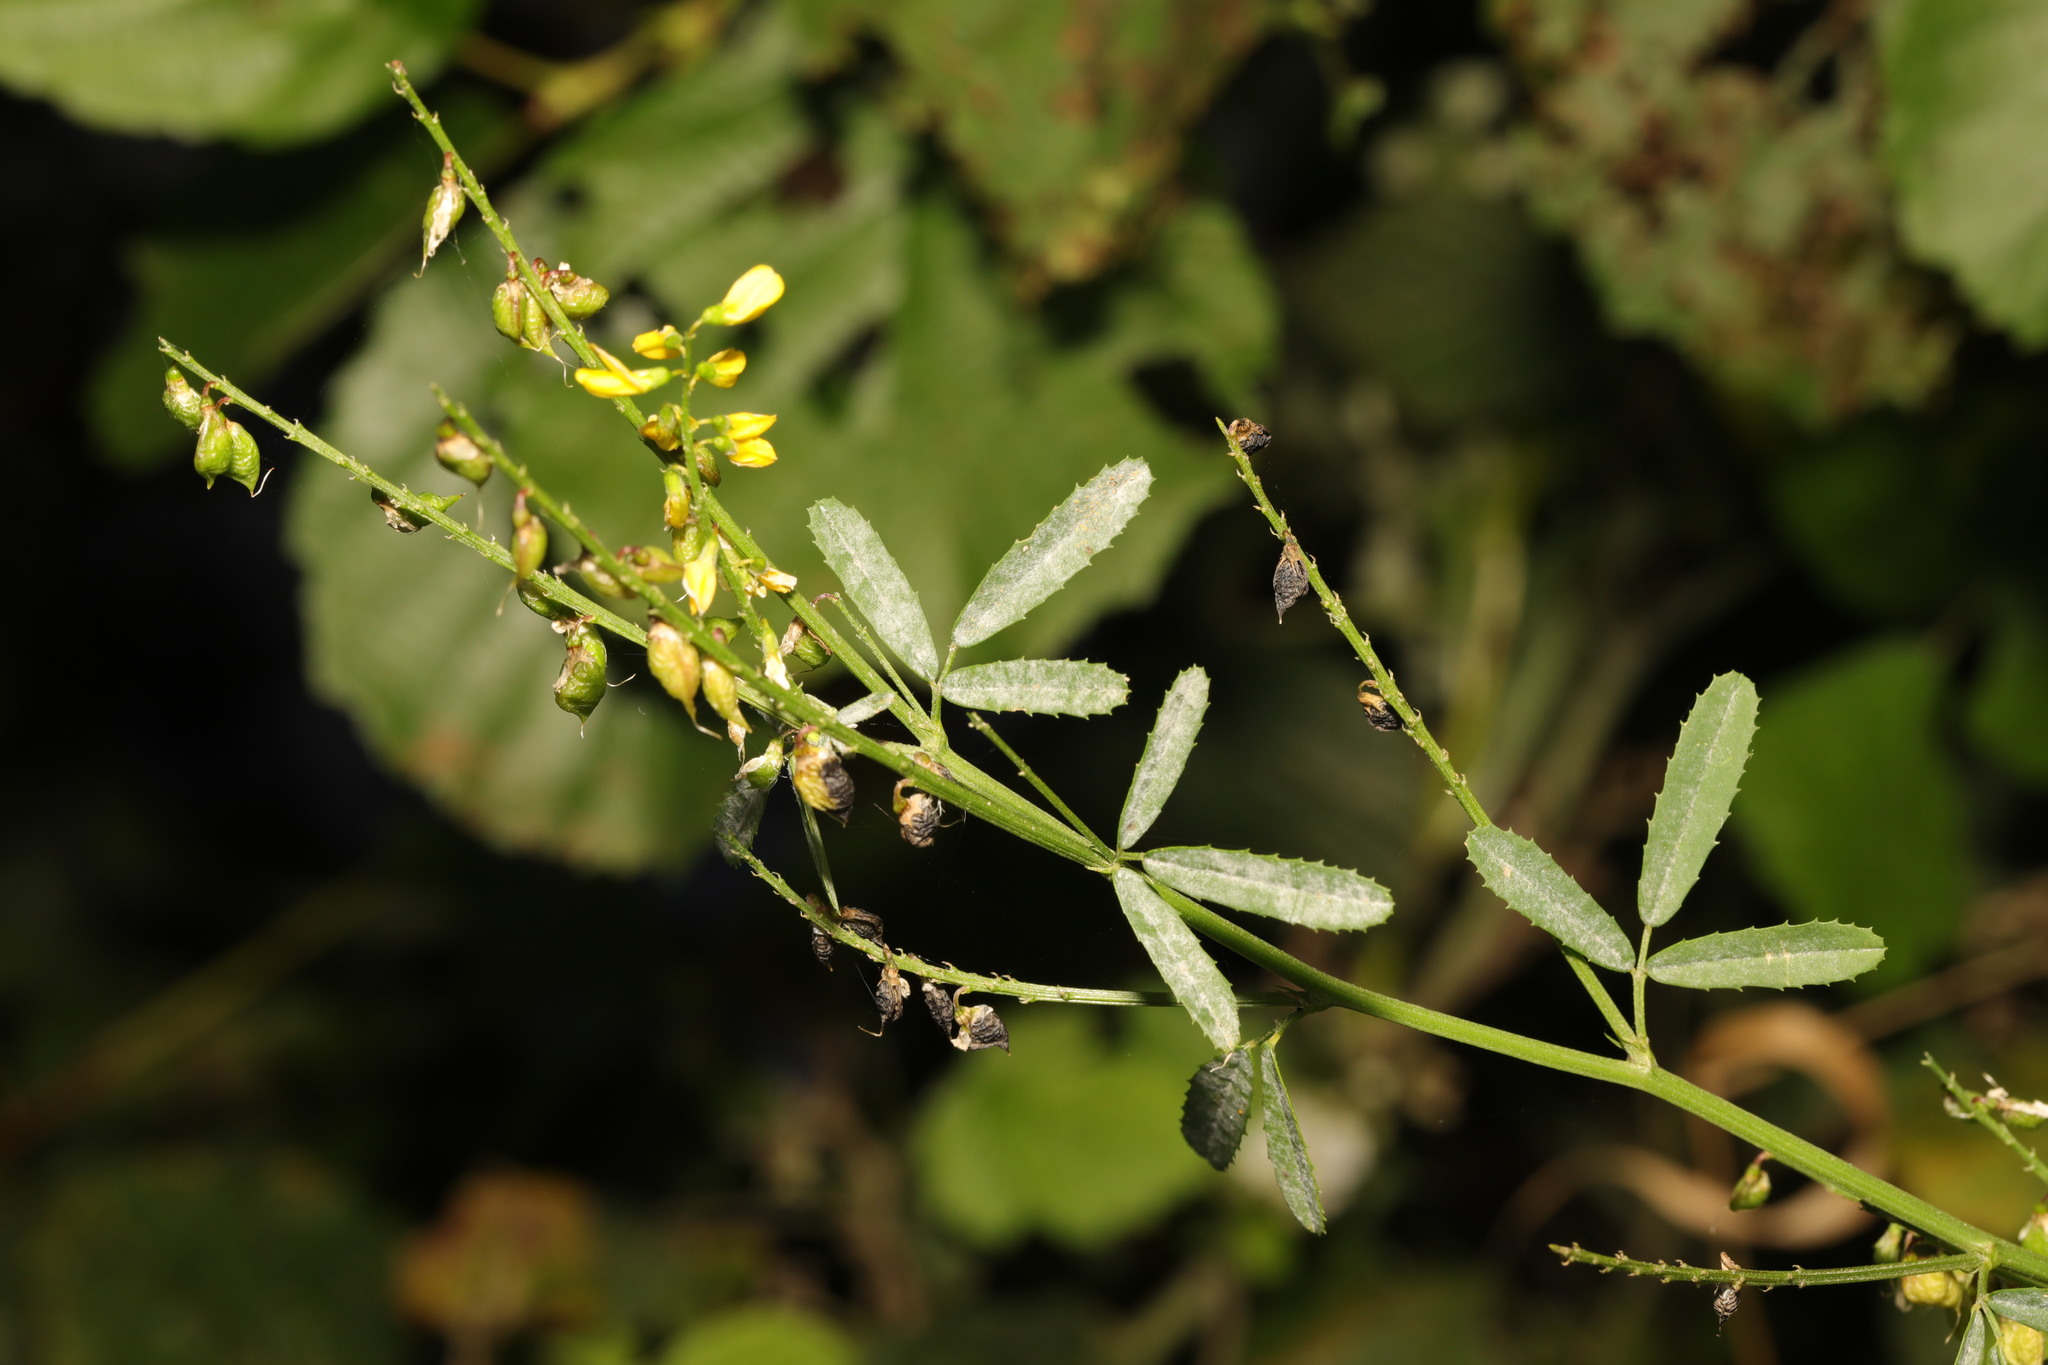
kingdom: Plantae
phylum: Tracheophyta
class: Magnoliopsida
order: Fabales
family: Fabaceae
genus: Melilotus
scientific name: Melilotus officinalis
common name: Sweetclover
